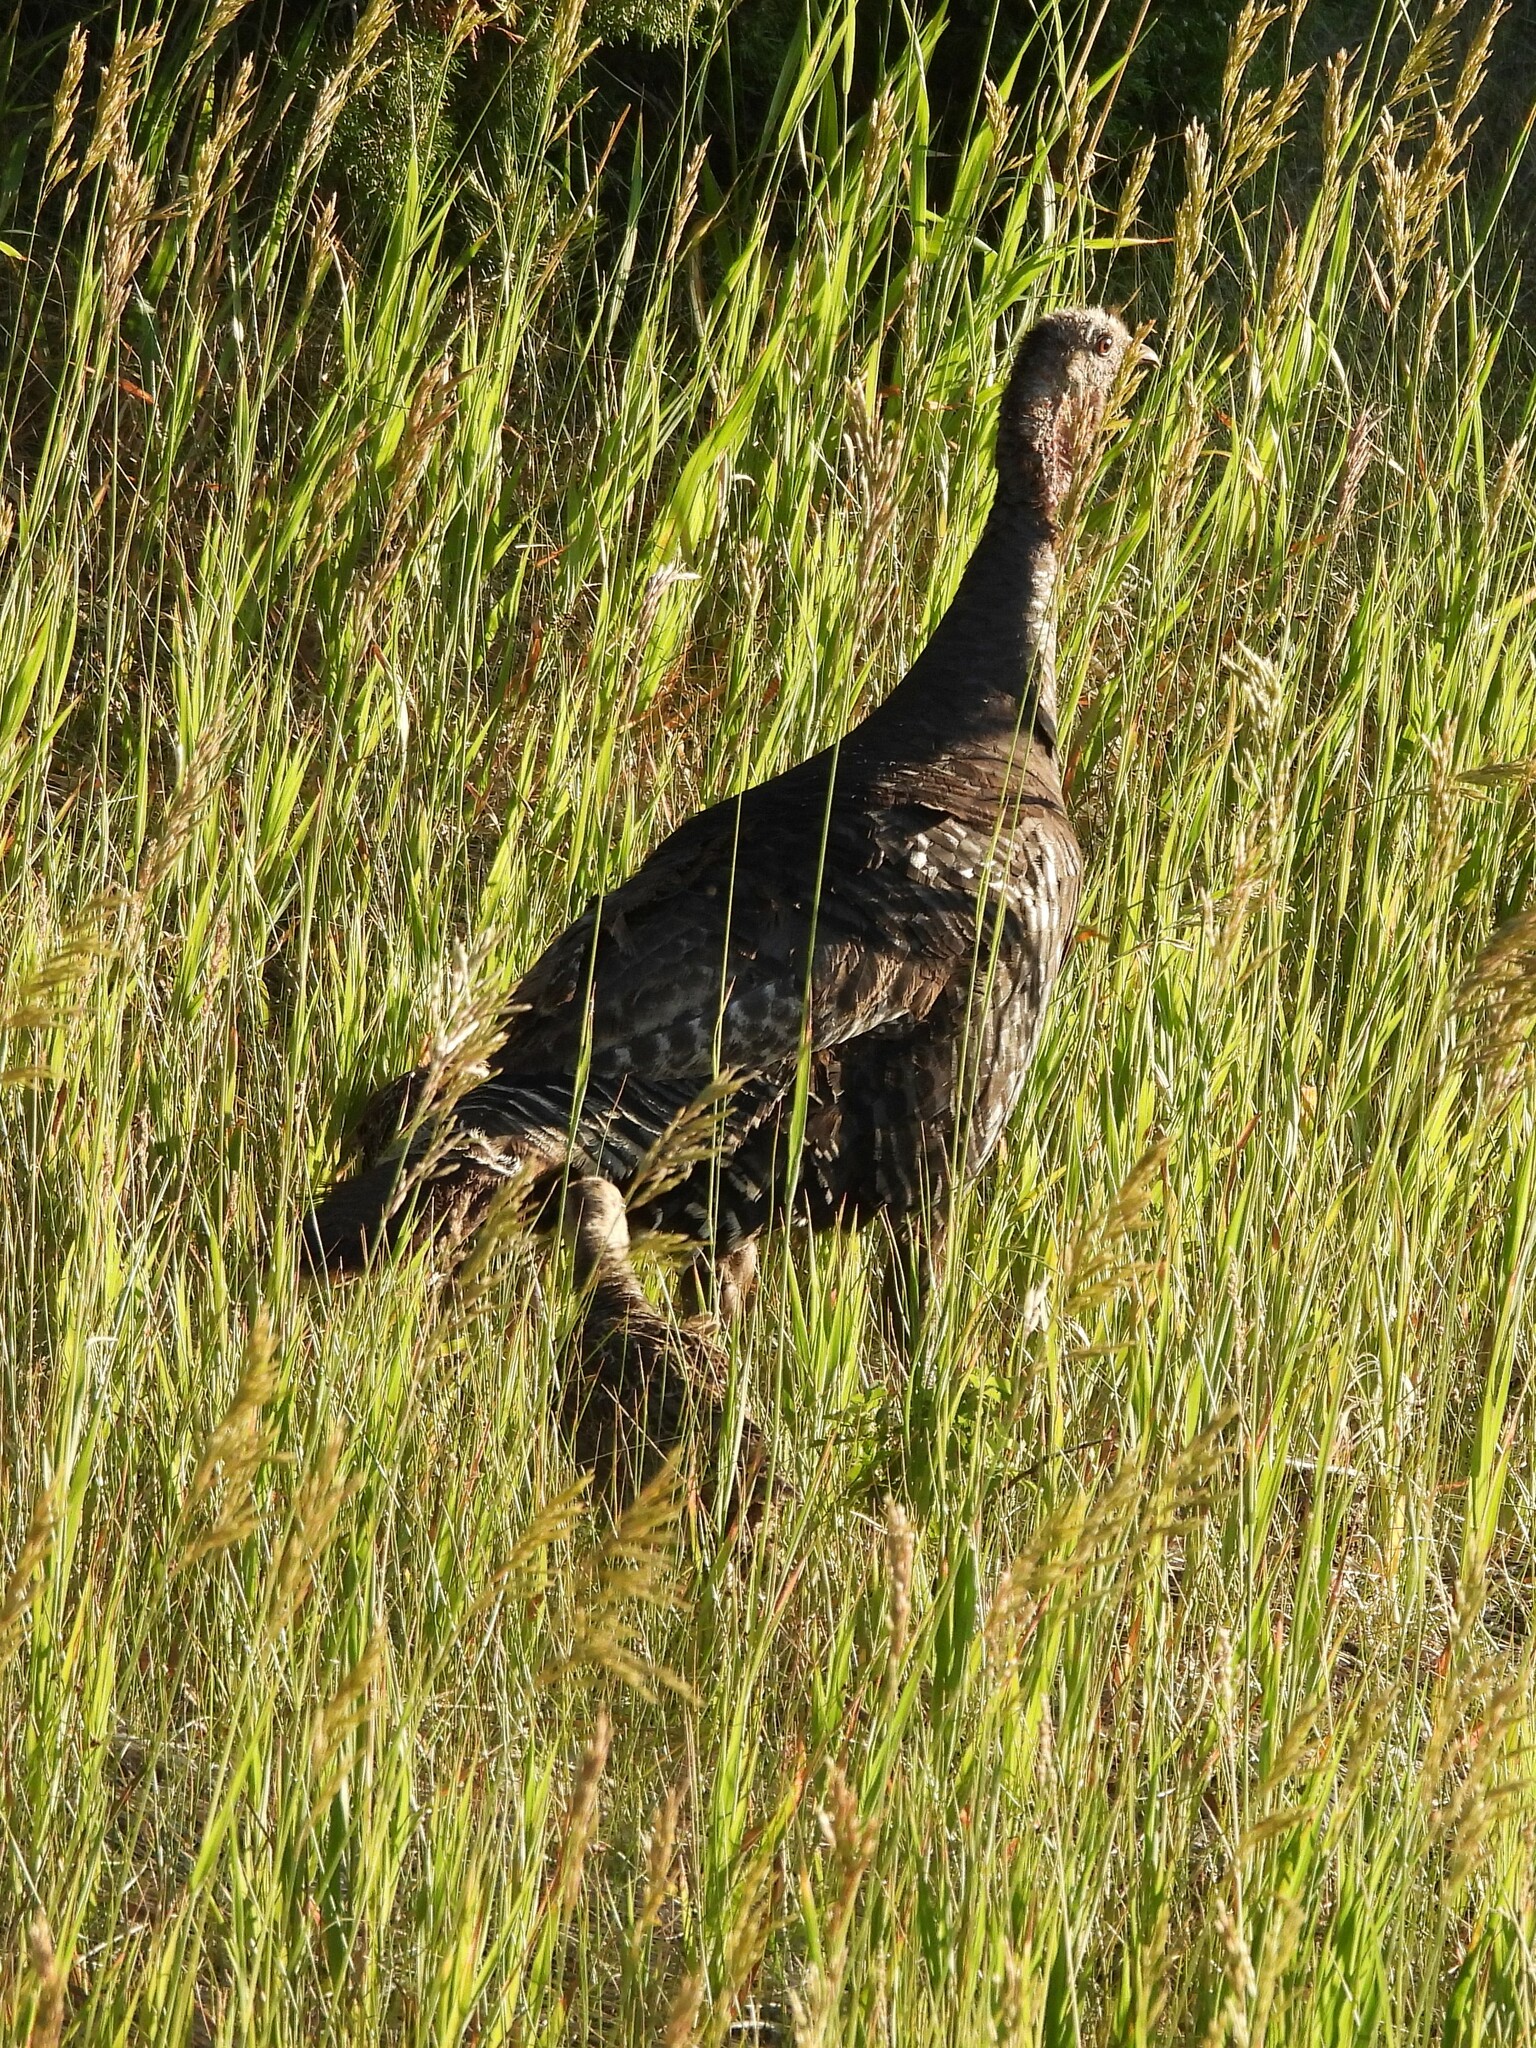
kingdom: Animalia
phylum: Chordata
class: Aves
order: Galliformes
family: Phasianidae
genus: Meleagris
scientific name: Meleagris gallopavo
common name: Wild turkey
